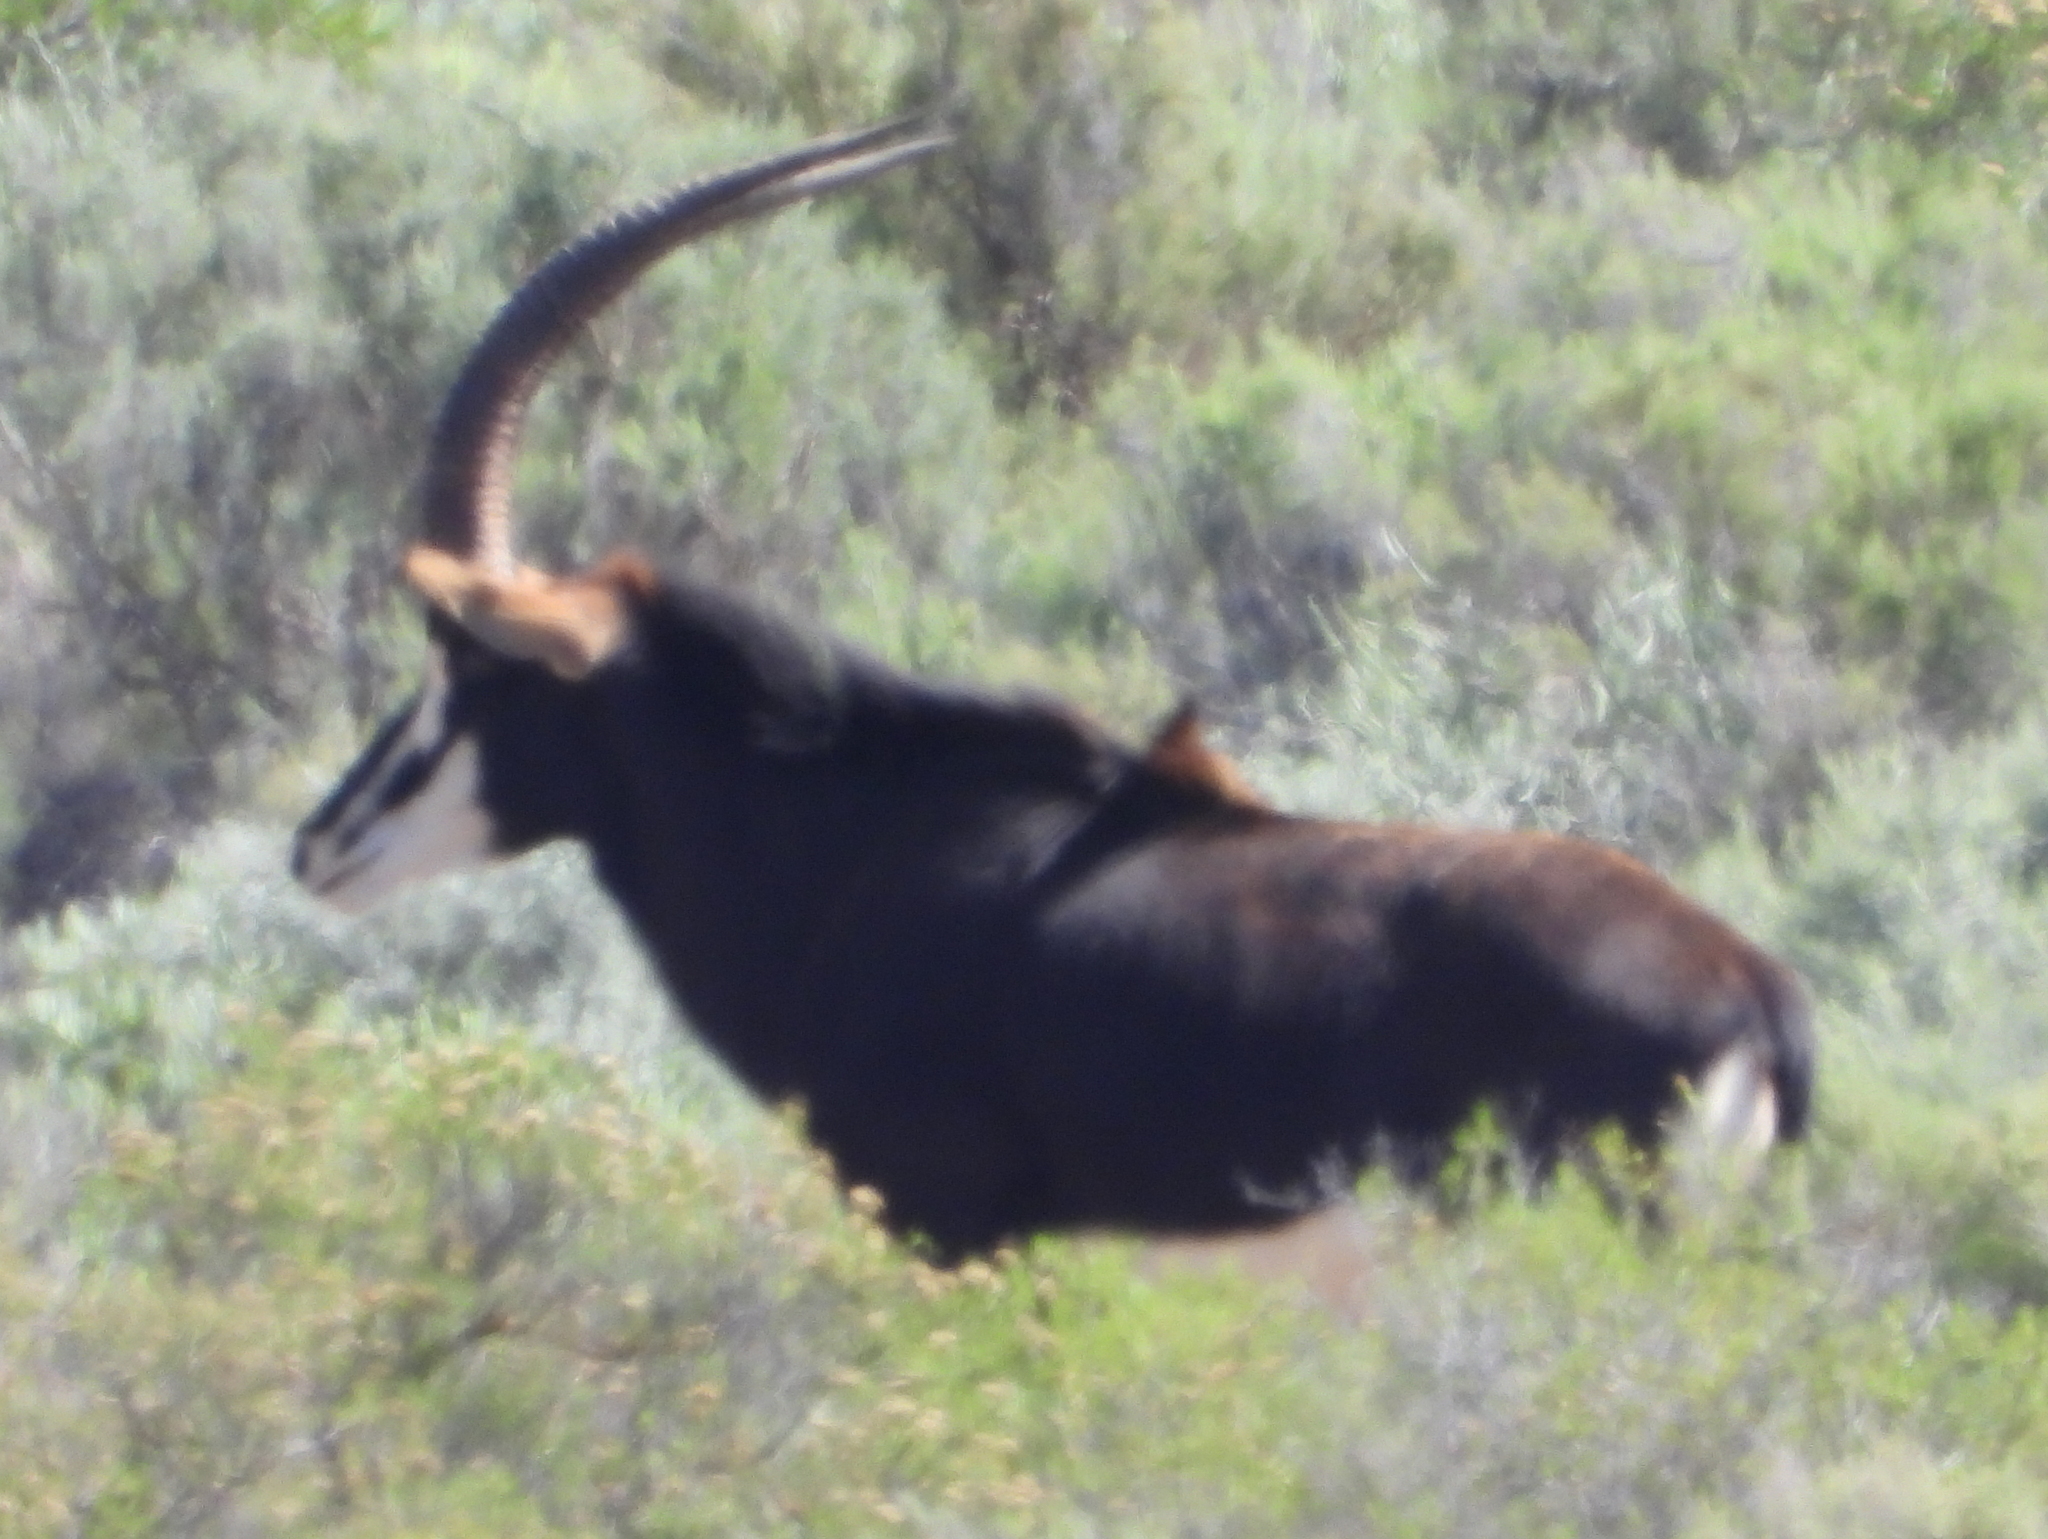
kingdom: Animalia
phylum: Chordata
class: Mammalia
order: Artiodactyla
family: Bovidae
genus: Hippotragus
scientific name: Hippotragus niger
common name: Sable antelope
